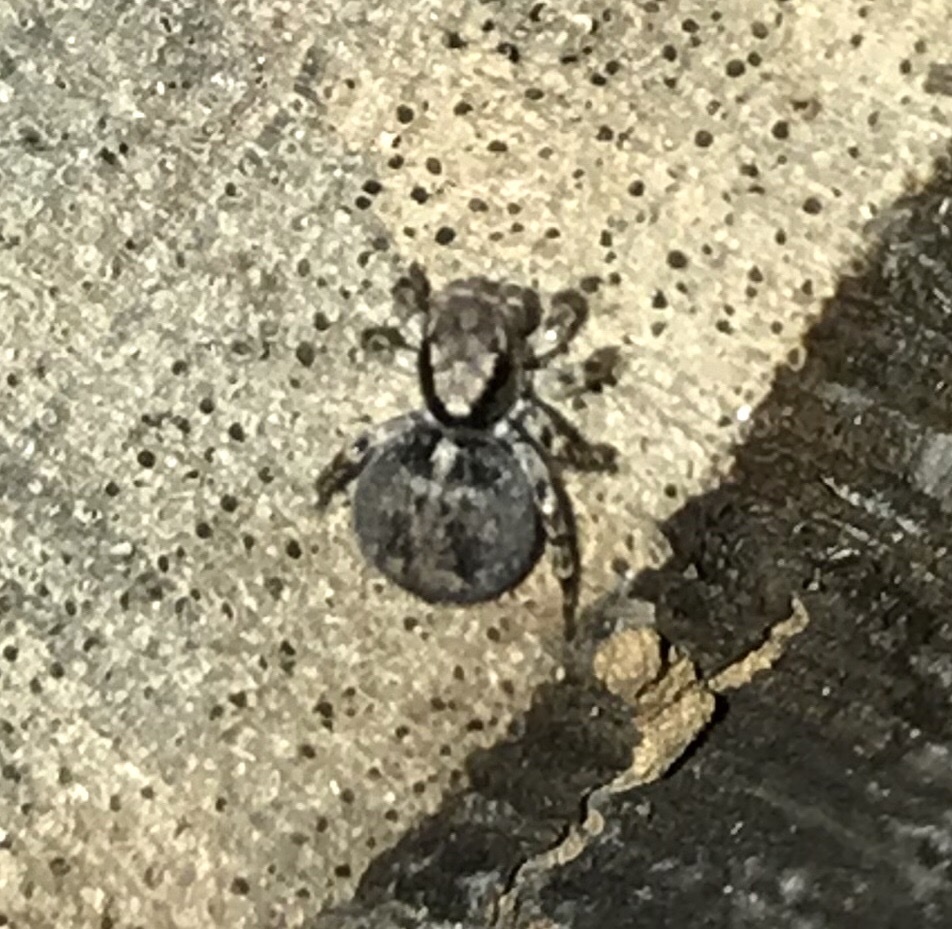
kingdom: Animalia
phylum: Arthropoda
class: Arachnida
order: Araneae
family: Salticidae
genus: Naphrys
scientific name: Naphrys pulex
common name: Flea jumping spider
